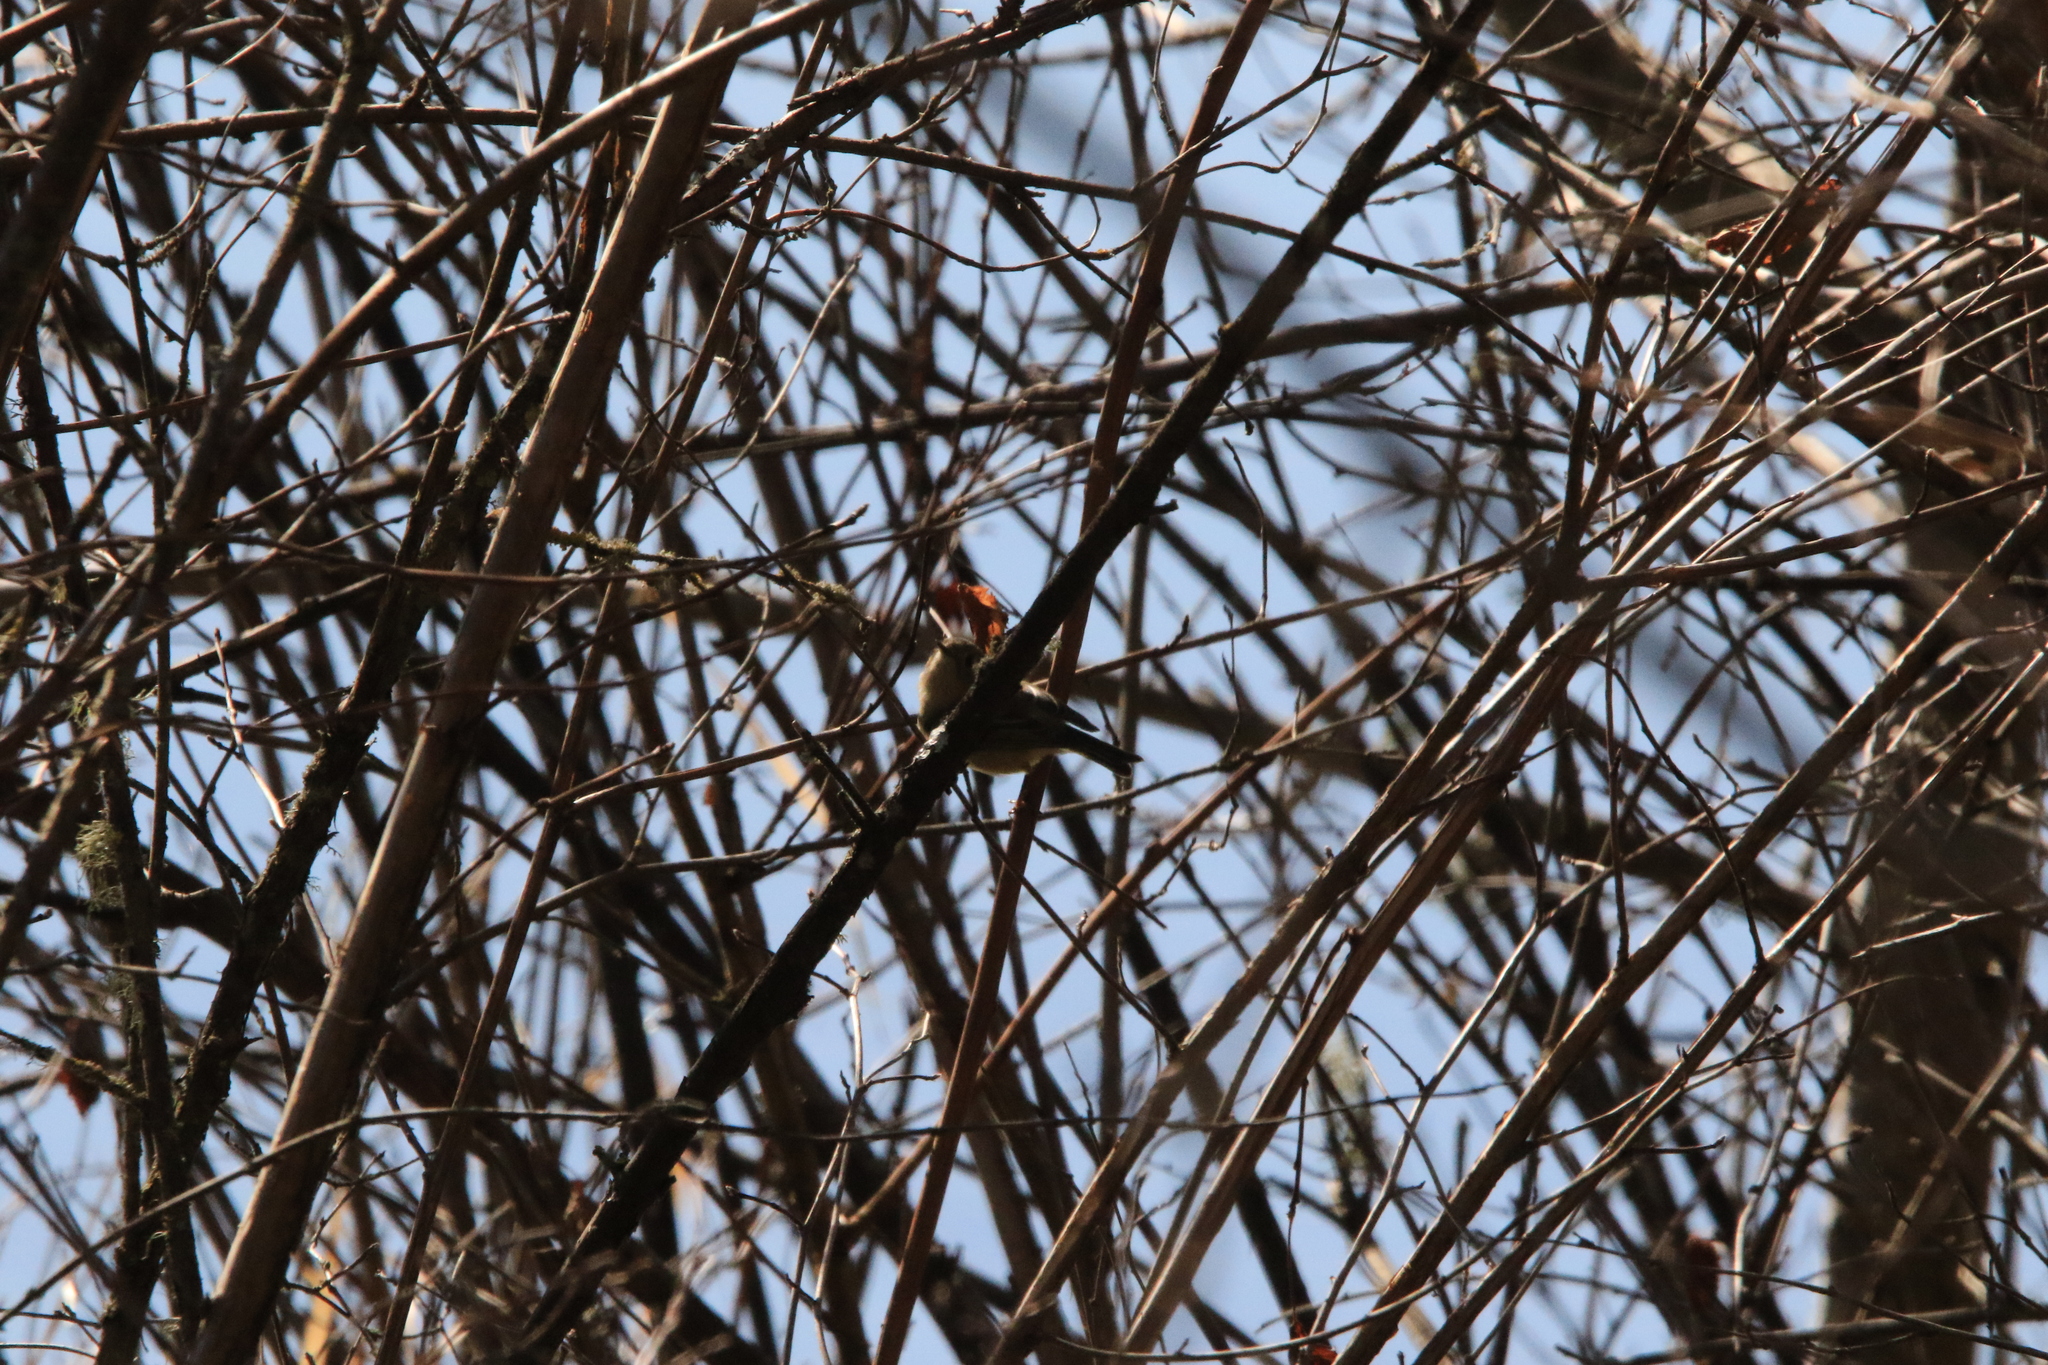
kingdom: Animalia
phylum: Chordata
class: Aves
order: Passeriformes
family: Regulidae
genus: Regulus
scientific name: Regulus calendula
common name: Ruby-crowned kinglet
